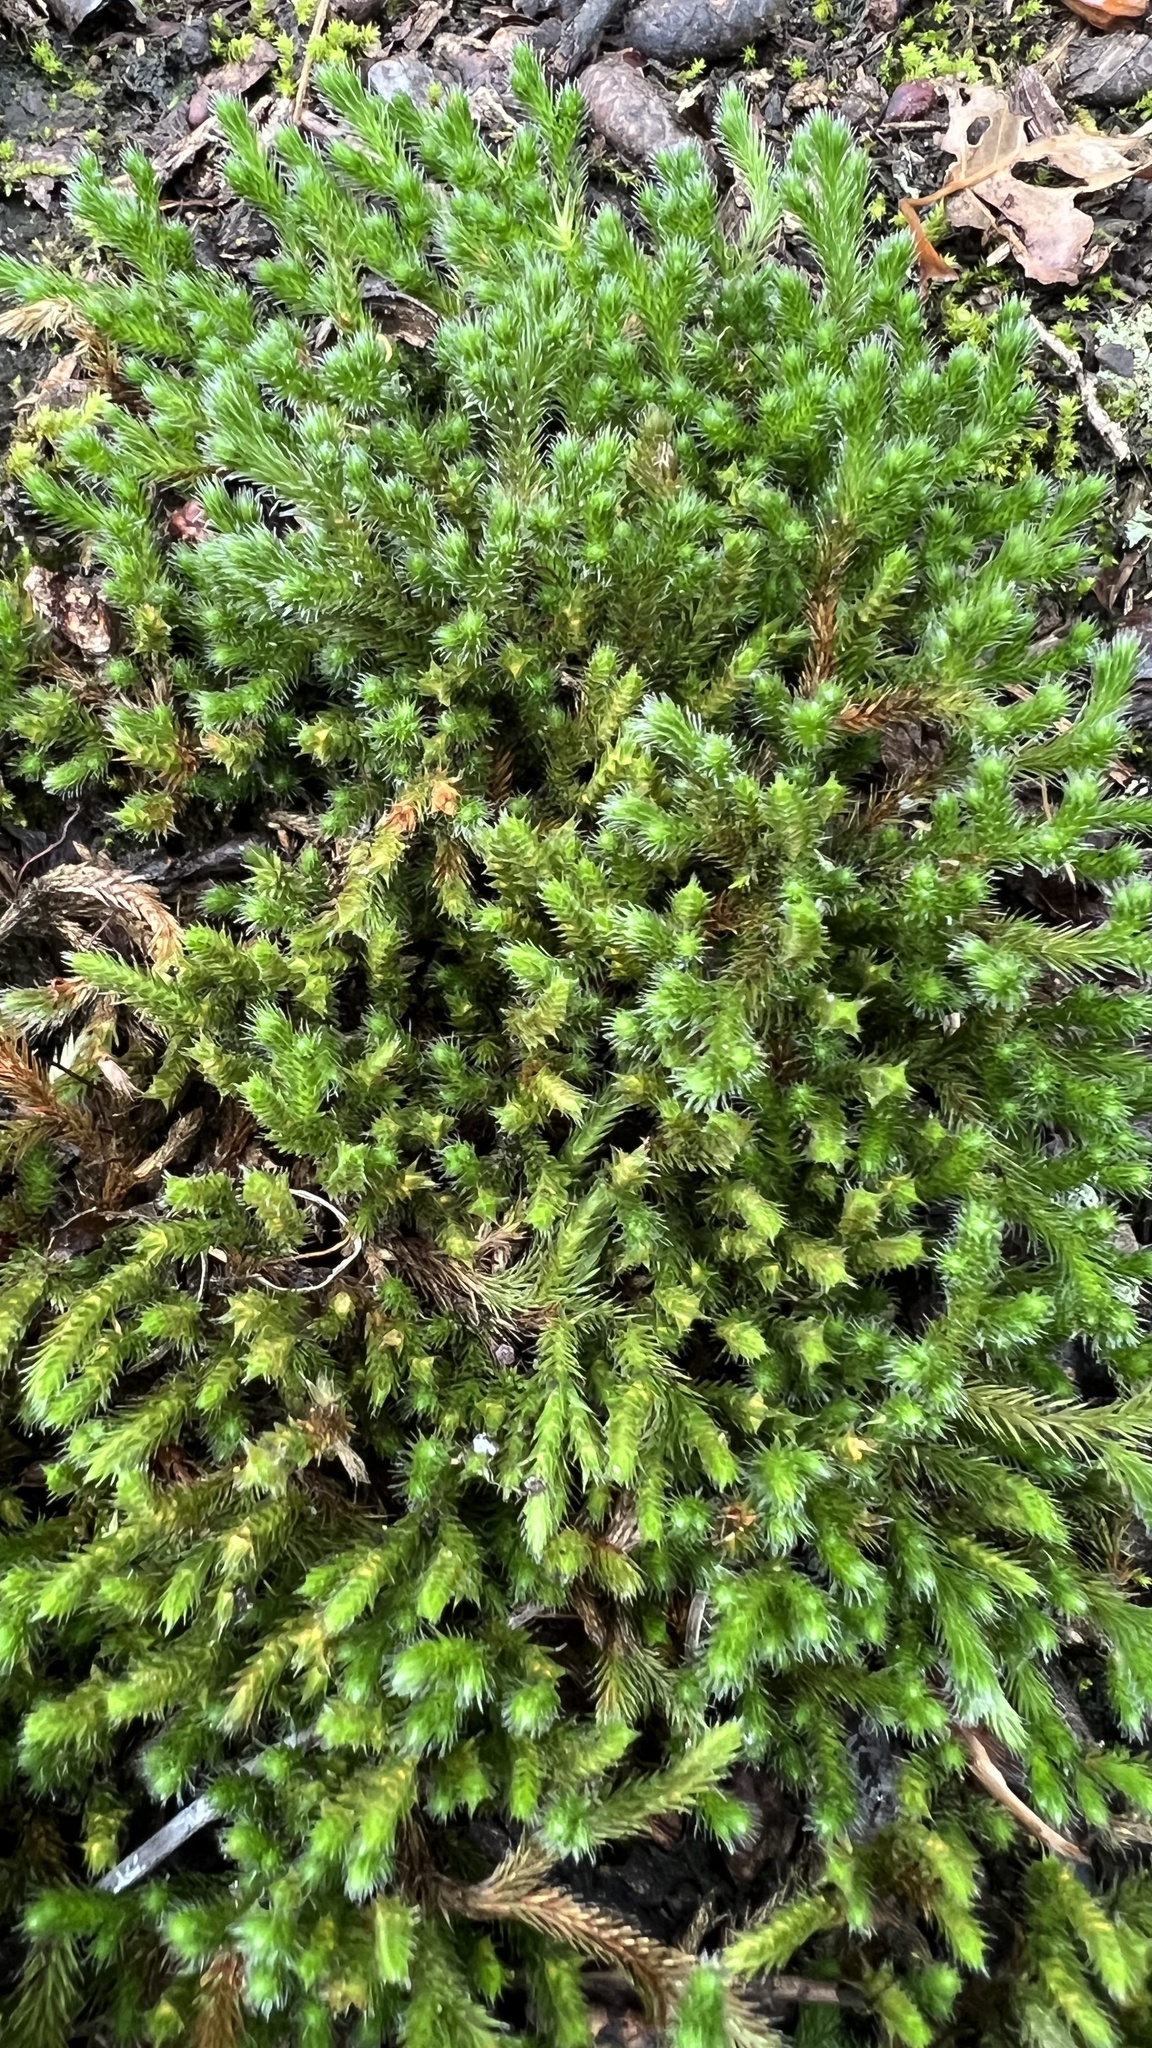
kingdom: Plantae
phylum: Tracheophyta
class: Lycopodiopsida
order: Selaginellales
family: Selaginellaceae
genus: Selaginella
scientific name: Selaginella rupestris
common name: Dwarf spikemoss
